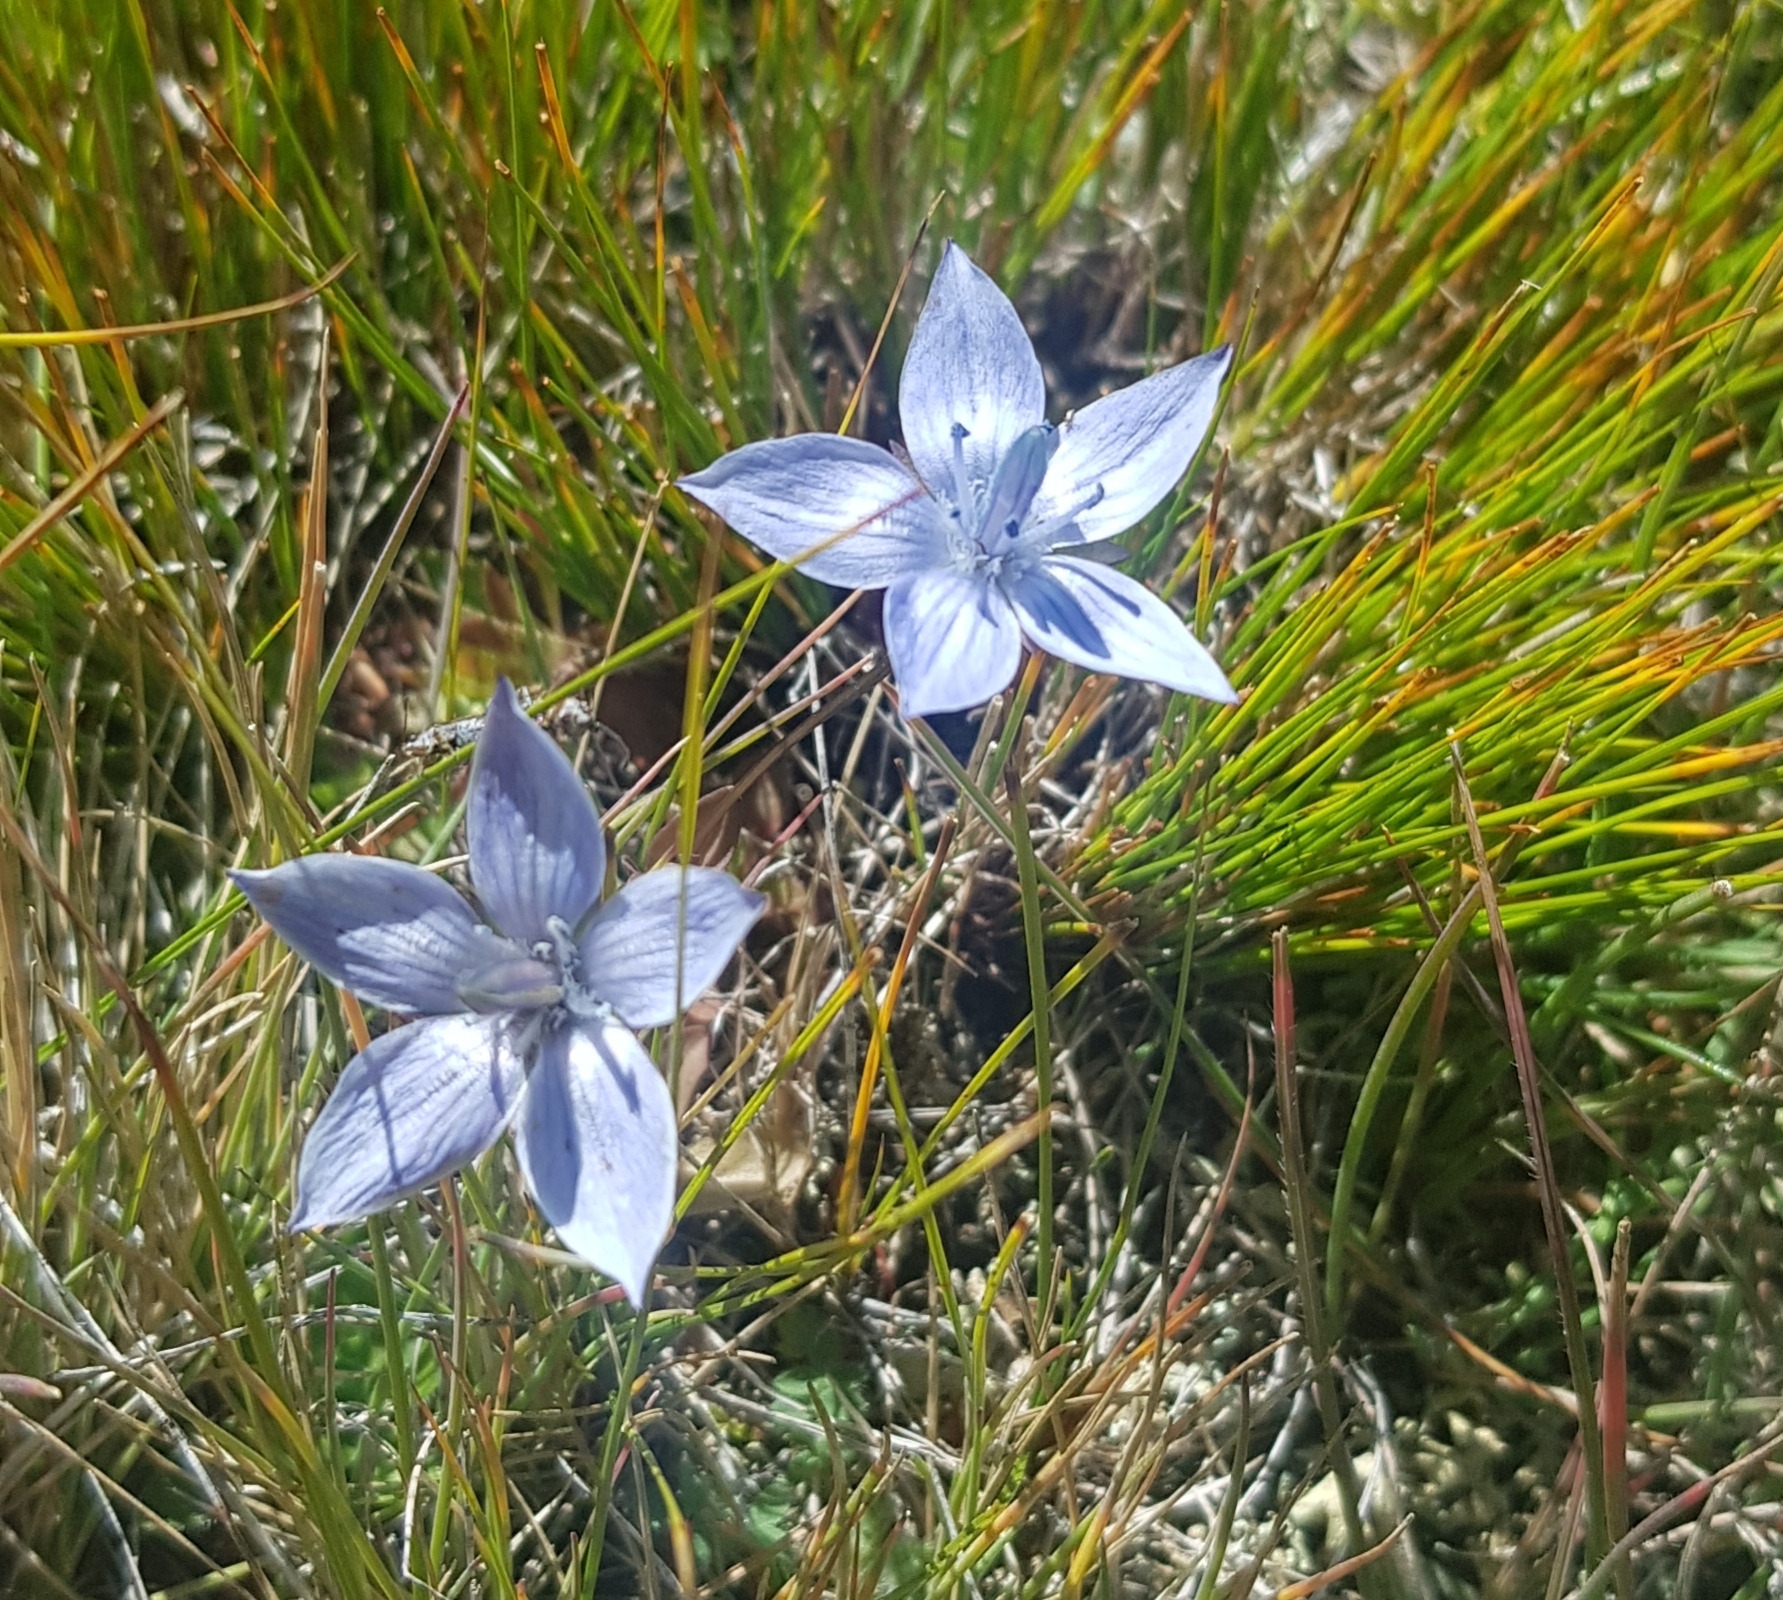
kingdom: Plantae
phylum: Tracheophyta
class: Magnoliopsida
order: Gentianales
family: Gentianaceae
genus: Lomatogonium
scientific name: Lomatogonium carinthiacum
